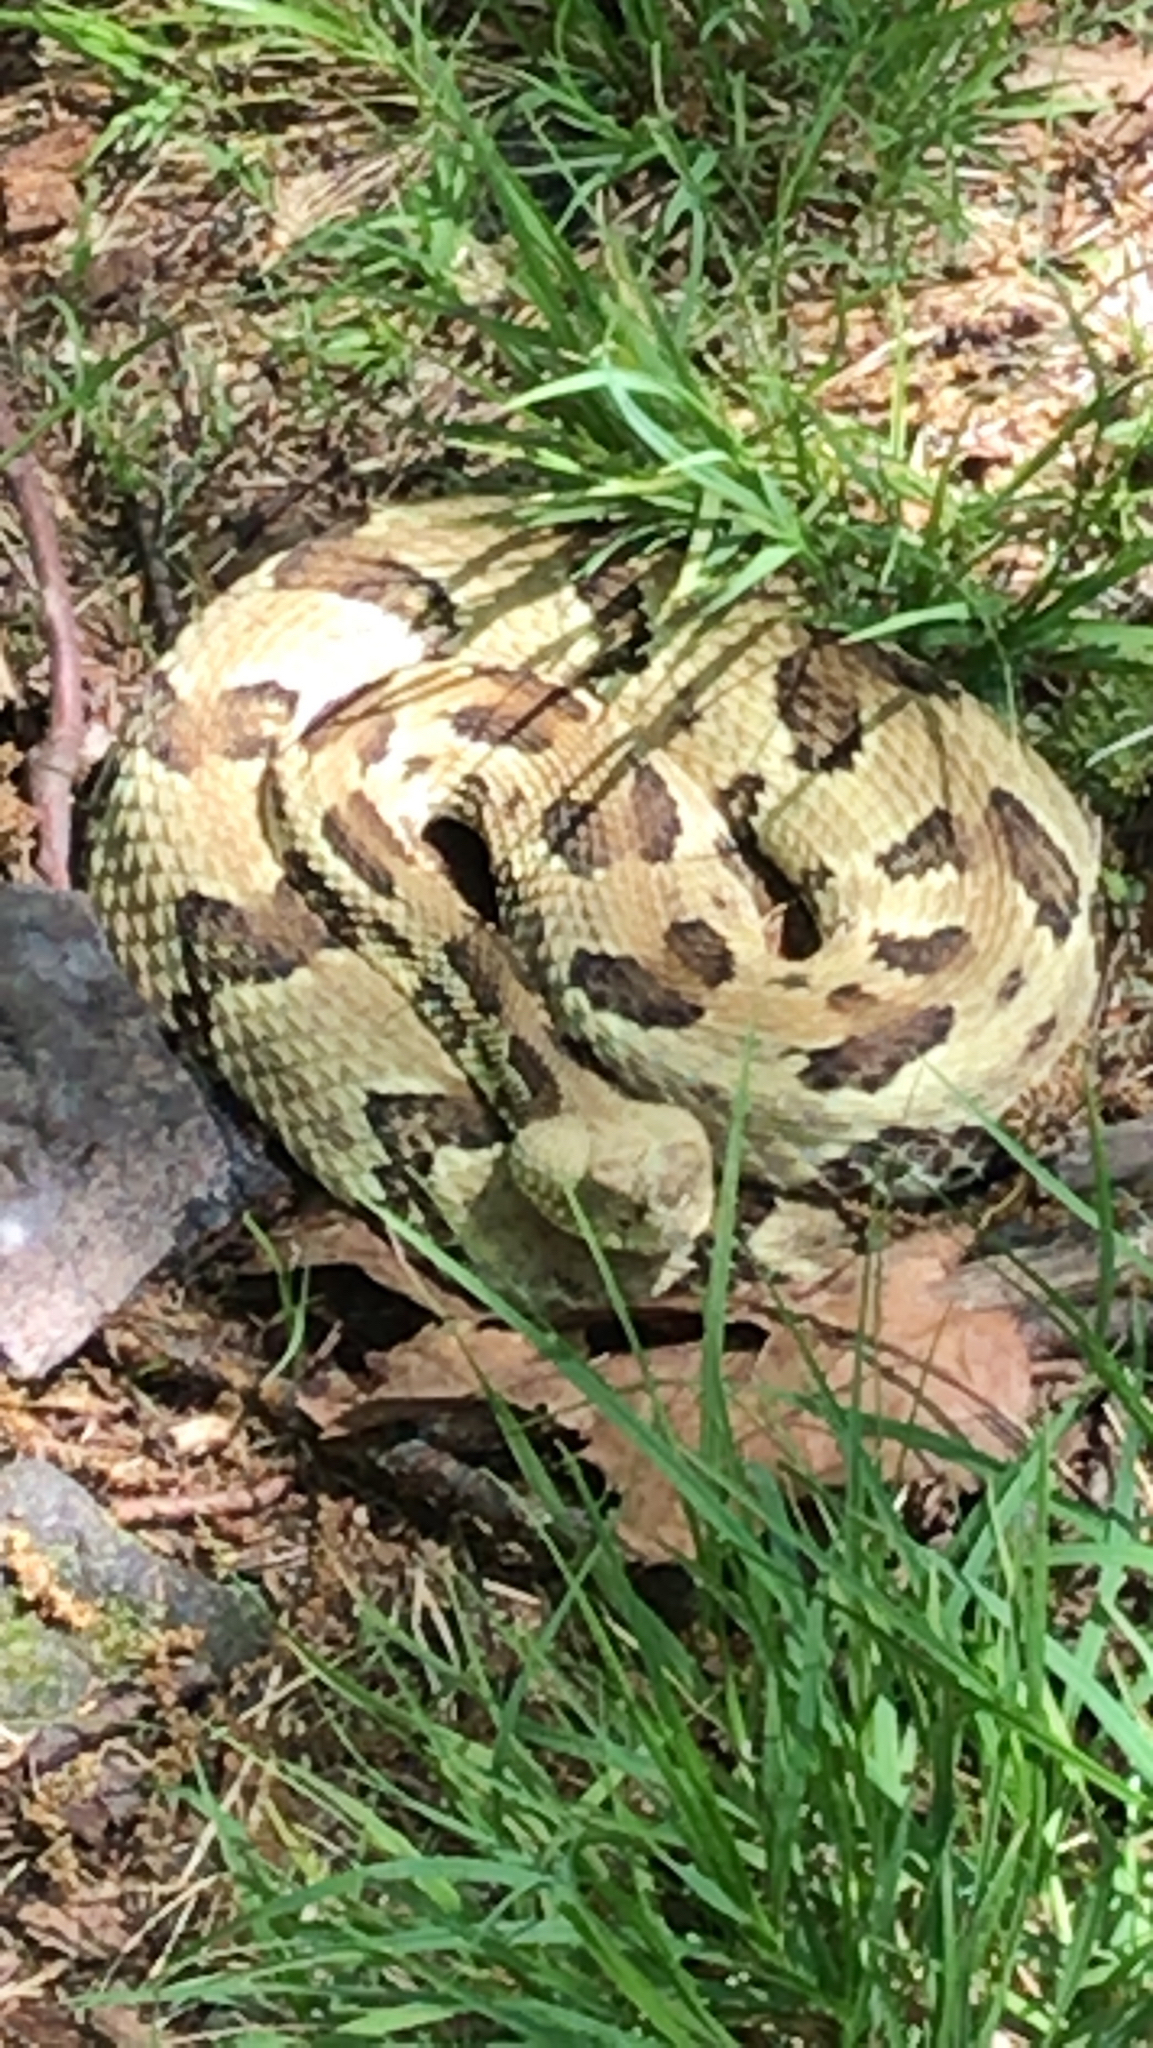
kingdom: Animalia
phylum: Chordata
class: Squamata
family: Viperidae
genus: Crotalus
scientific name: Crotalus horridus
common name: Timber rattlesnake
